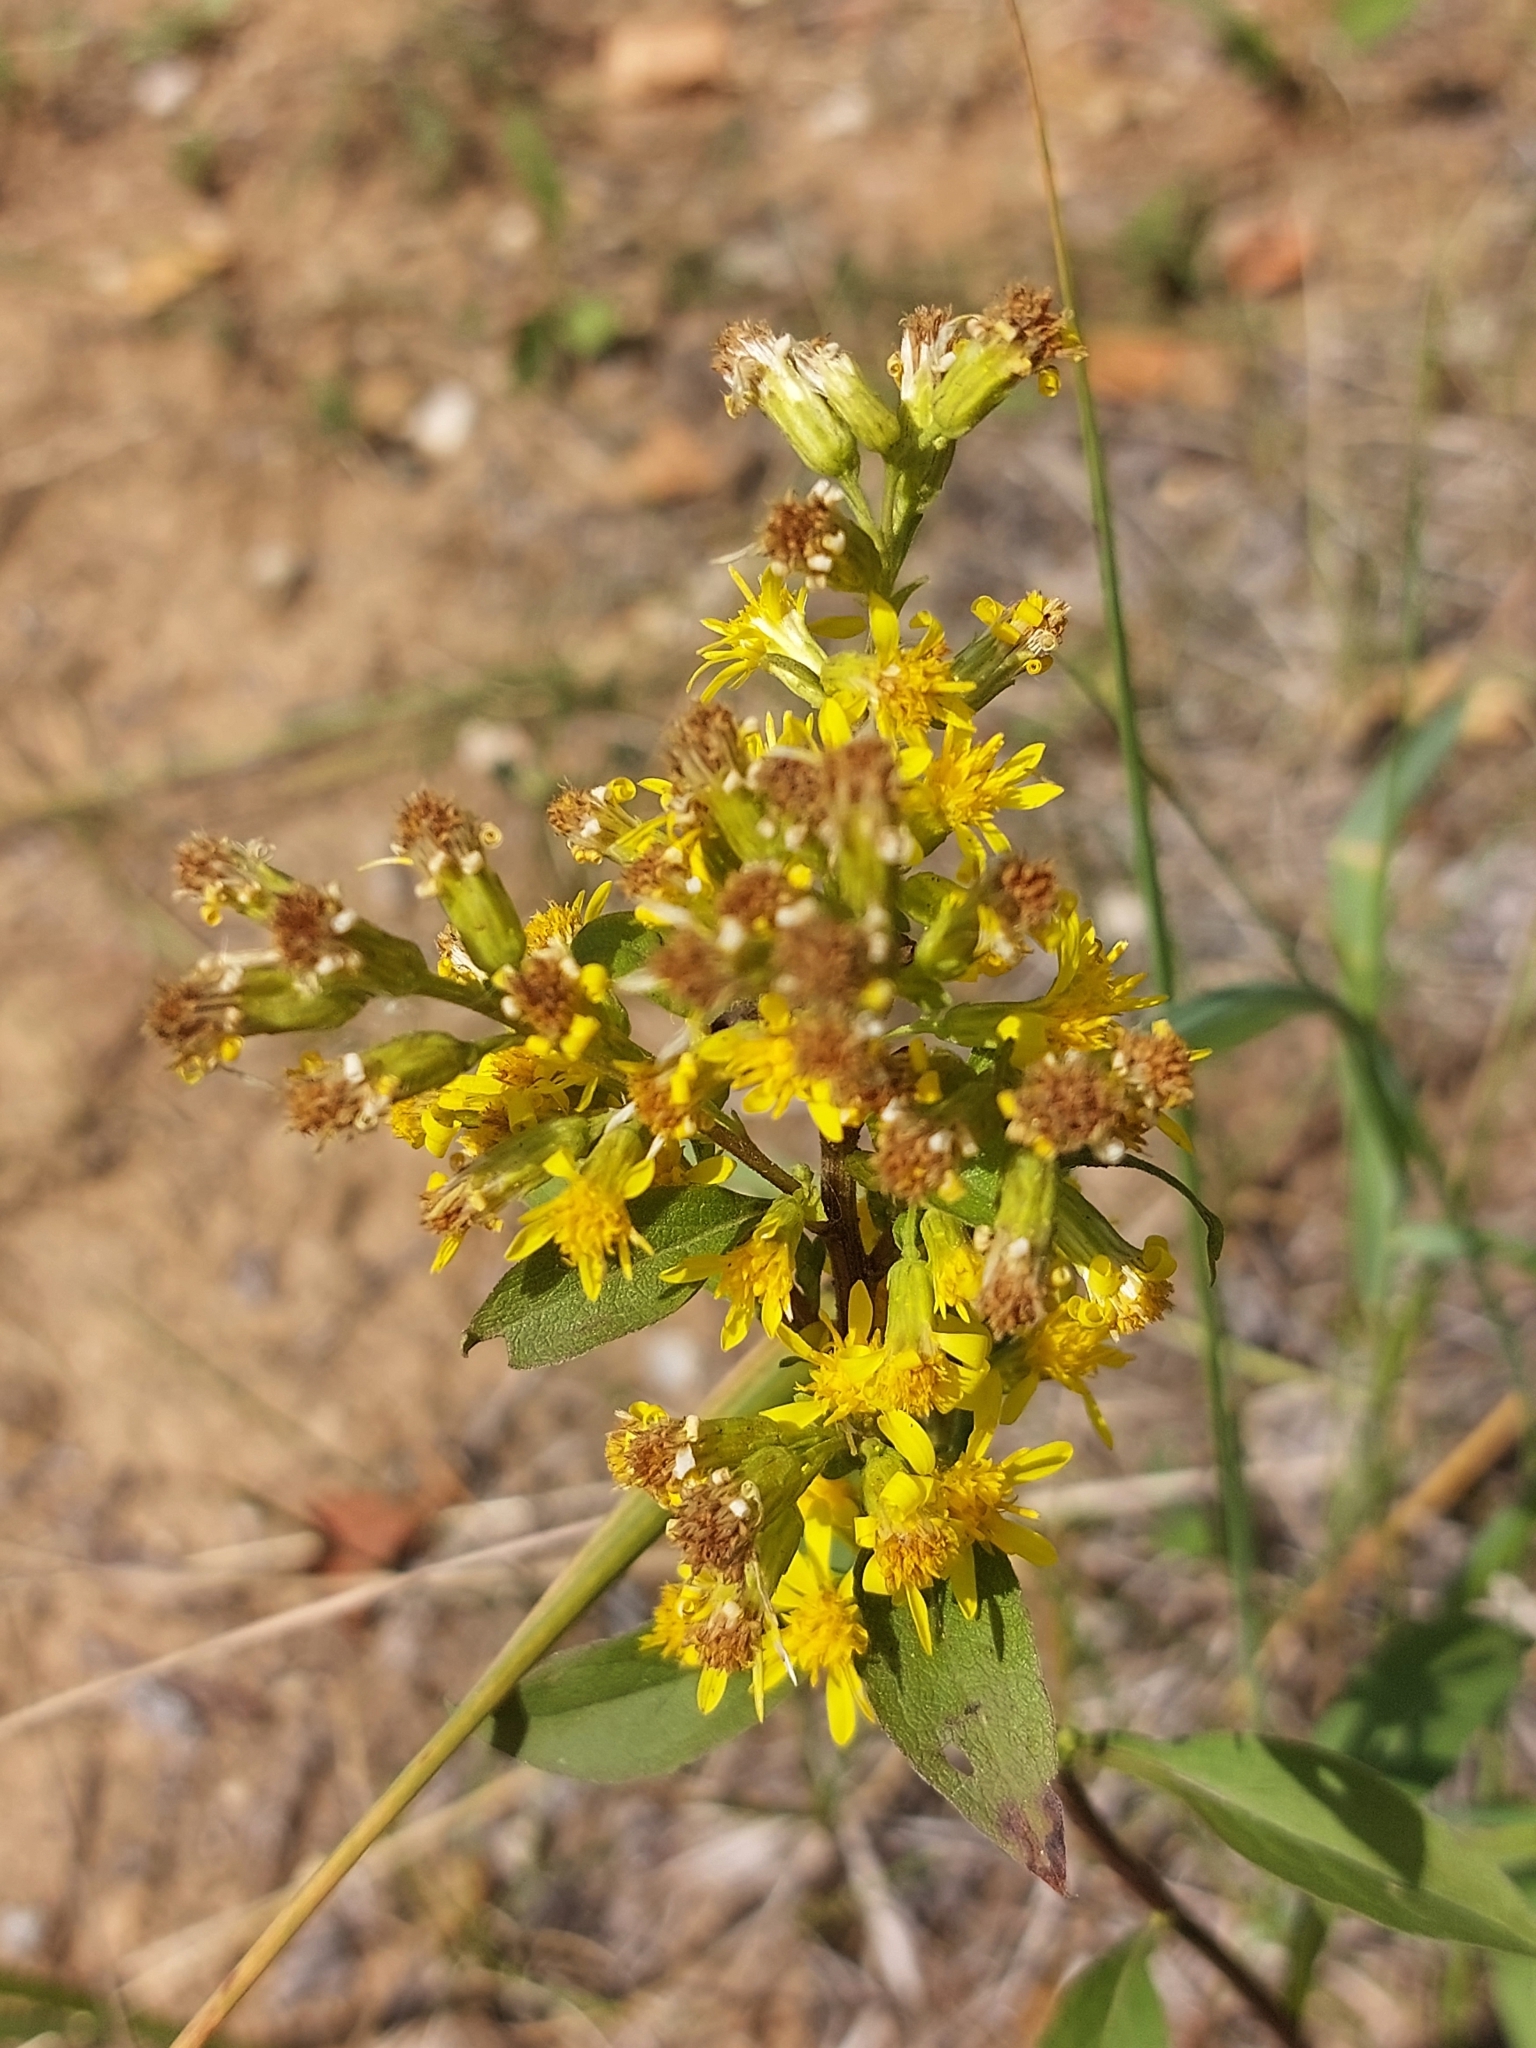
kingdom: Plantae
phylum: Tracheophyta
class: Magnoliopsida
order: Asterales
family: Asteraceae
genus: Solidago
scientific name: Solidago virgaurea
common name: Goldenrod
